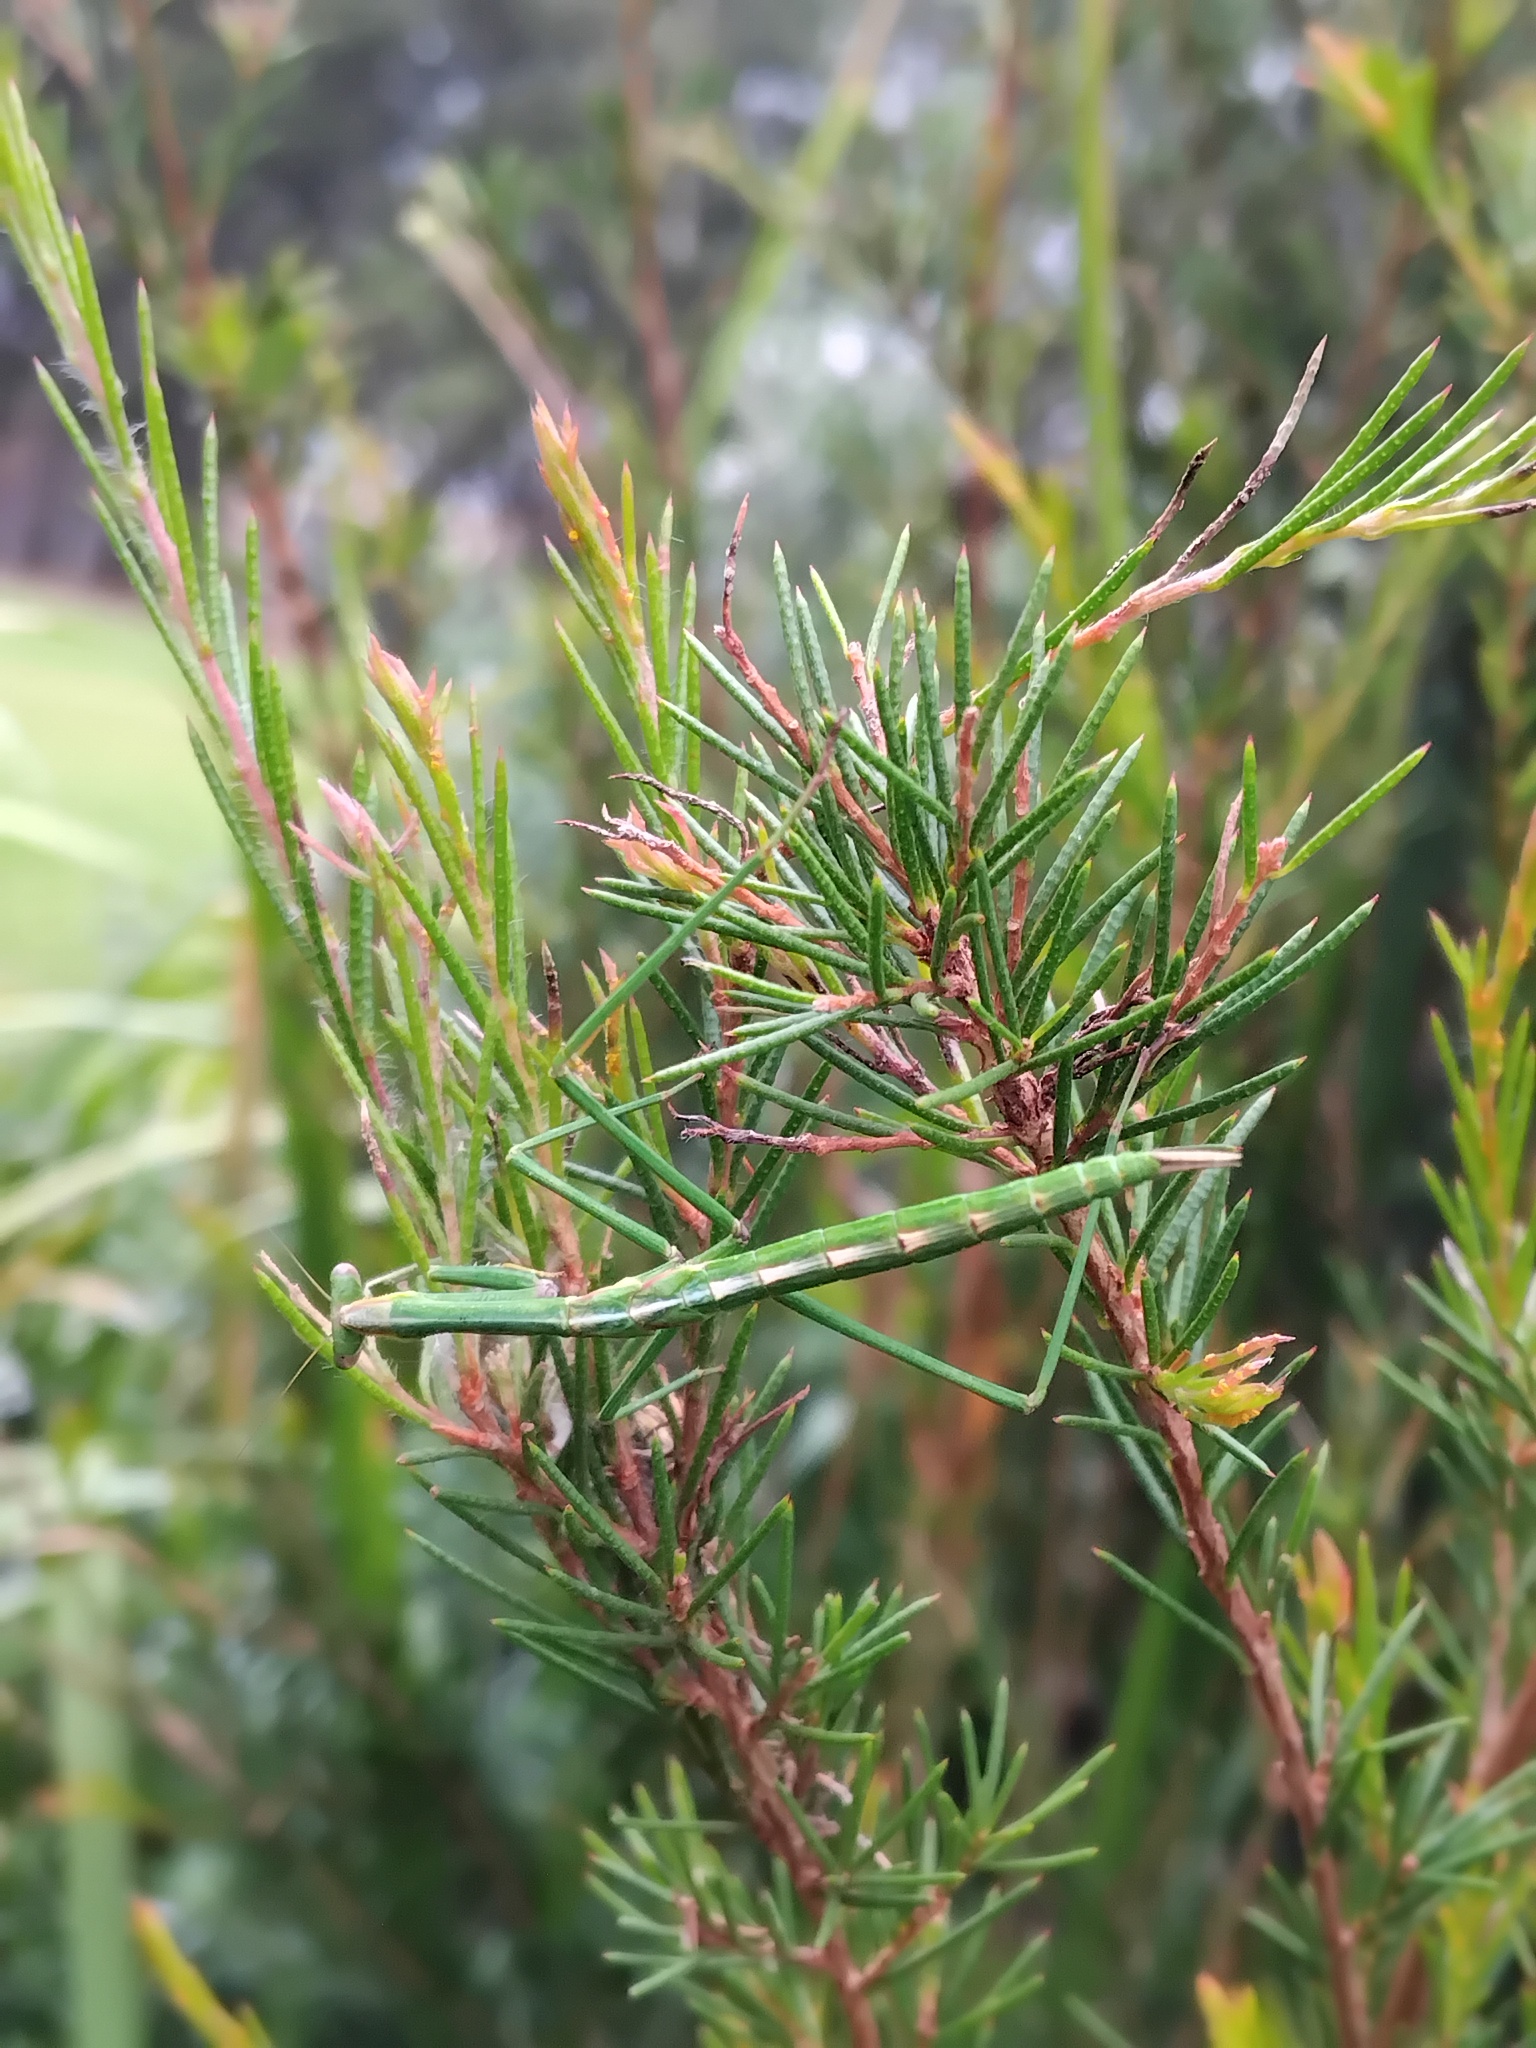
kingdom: Animalia
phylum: Arthropoda
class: Insecta
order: Mantodea
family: Mantidae
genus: Archimantis
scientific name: Archimantis latistyla
